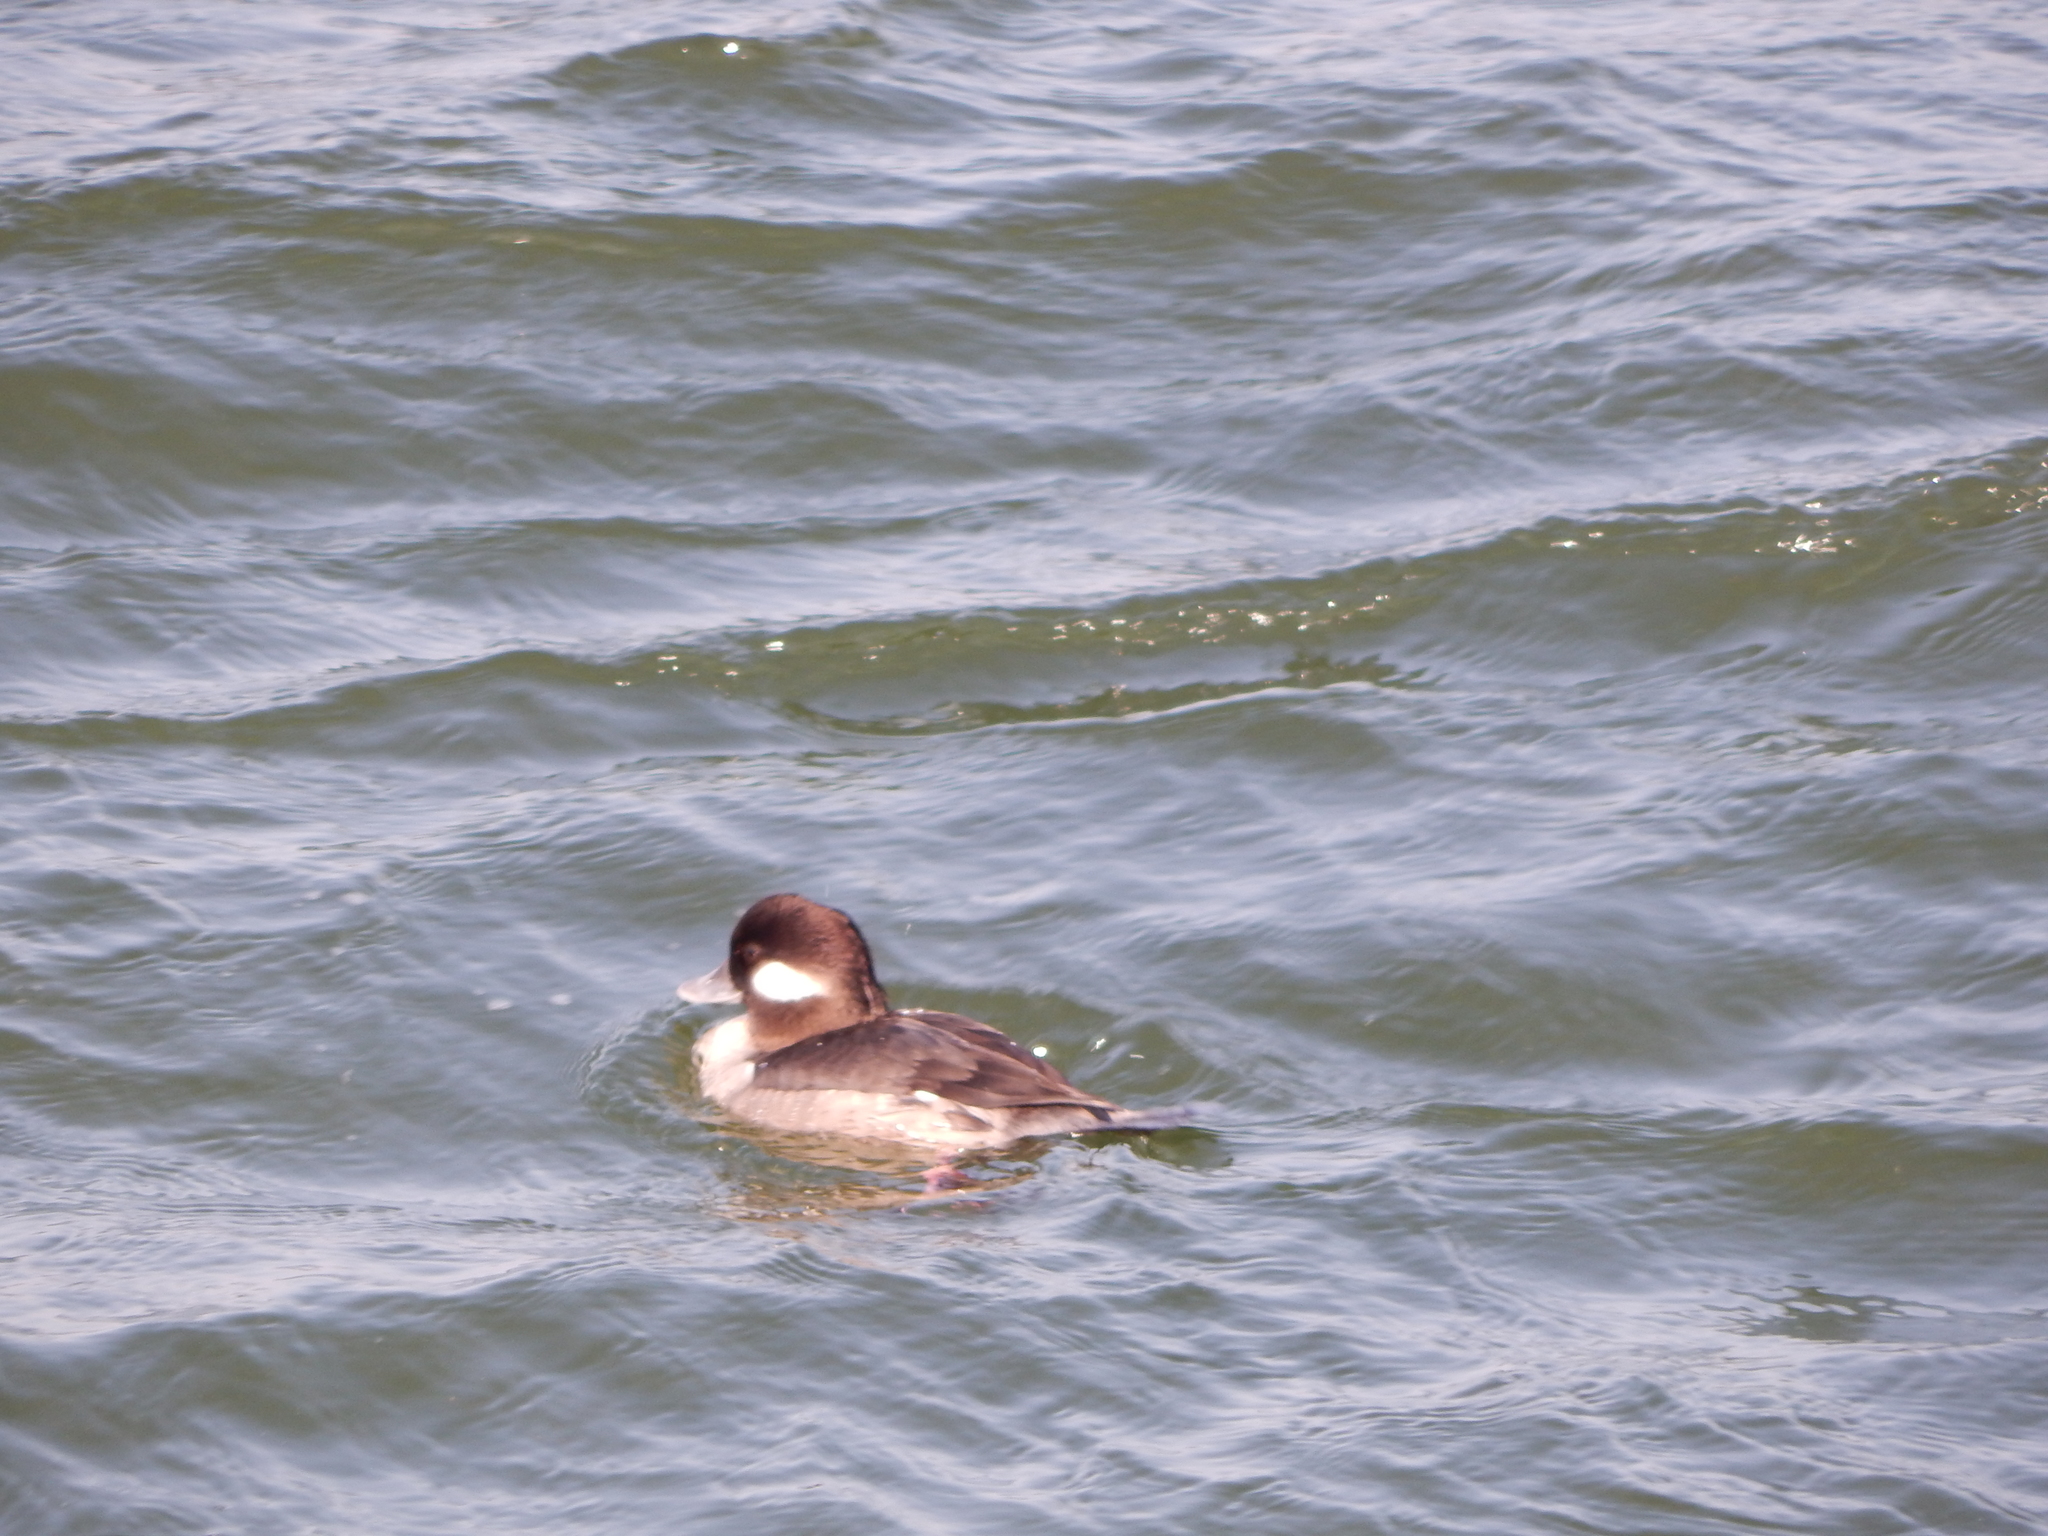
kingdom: Animalia
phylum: Chordata
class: Aves
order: Anseriformes
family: Anatidae
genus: Bucephala
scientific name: Bucephala albeola
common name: Bufflehead
